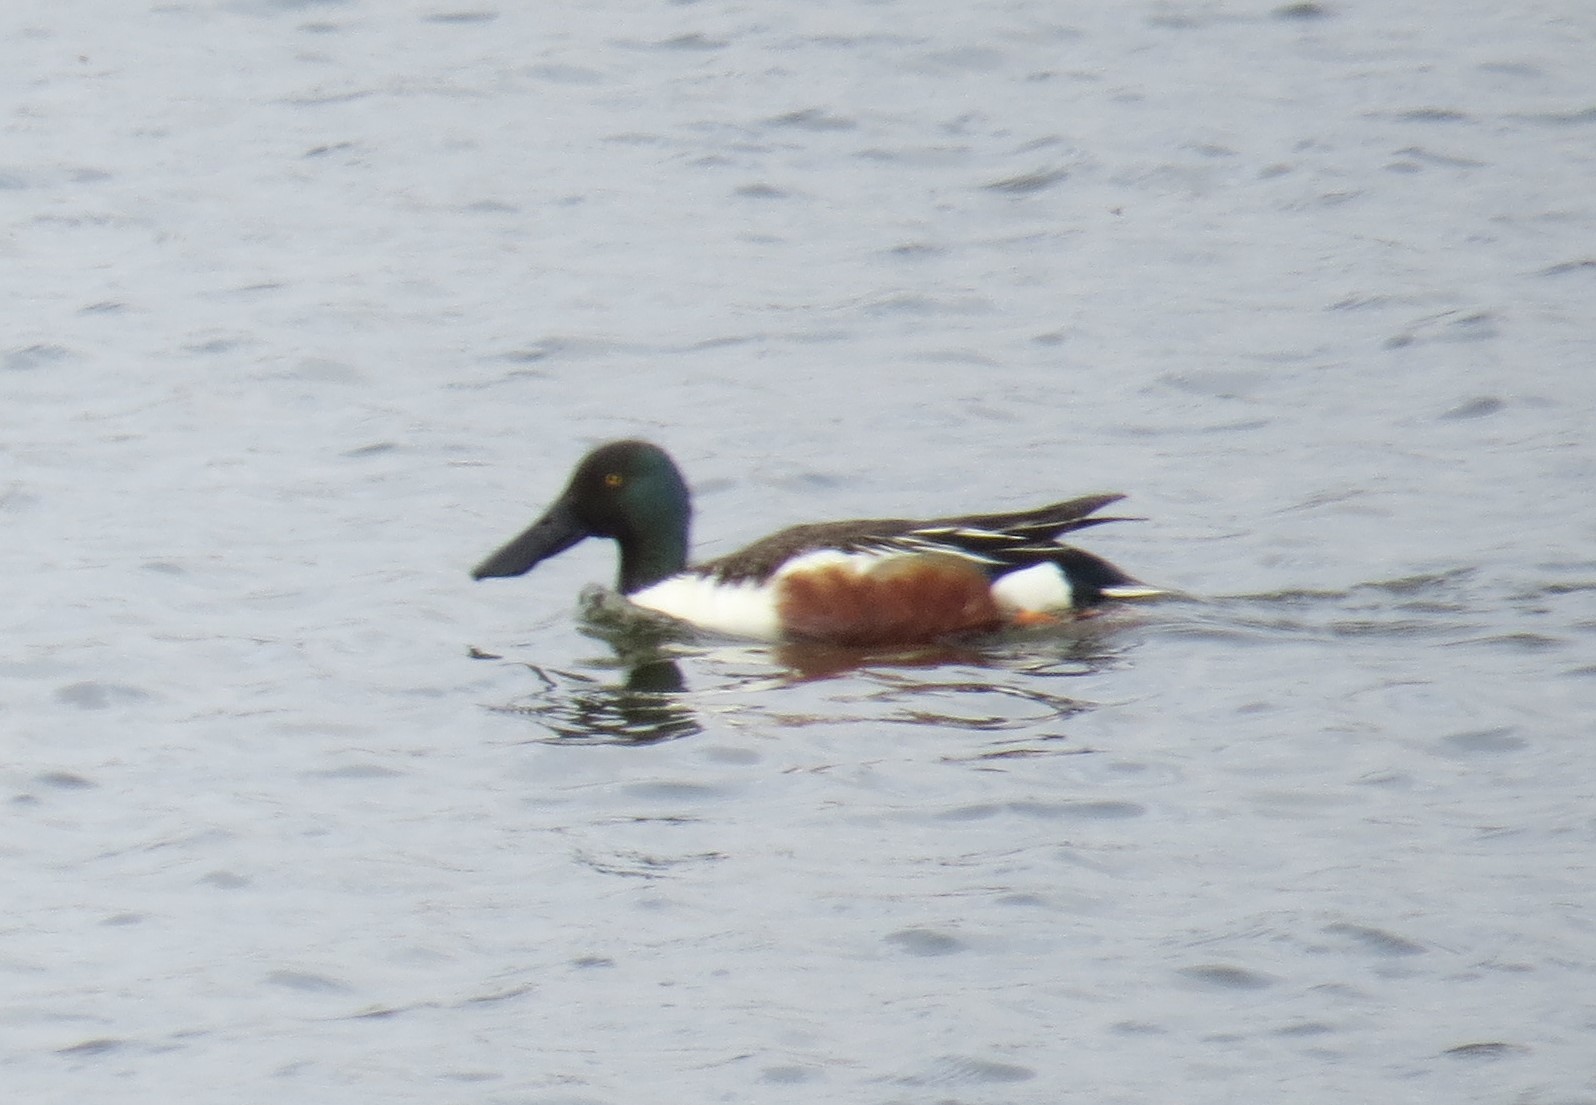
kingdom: Animalia
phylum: Chordata
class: Aves
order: Anseriformes
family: Anatidae
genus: Spatula
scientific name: Spatula clypeata
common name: Northern shoveler
